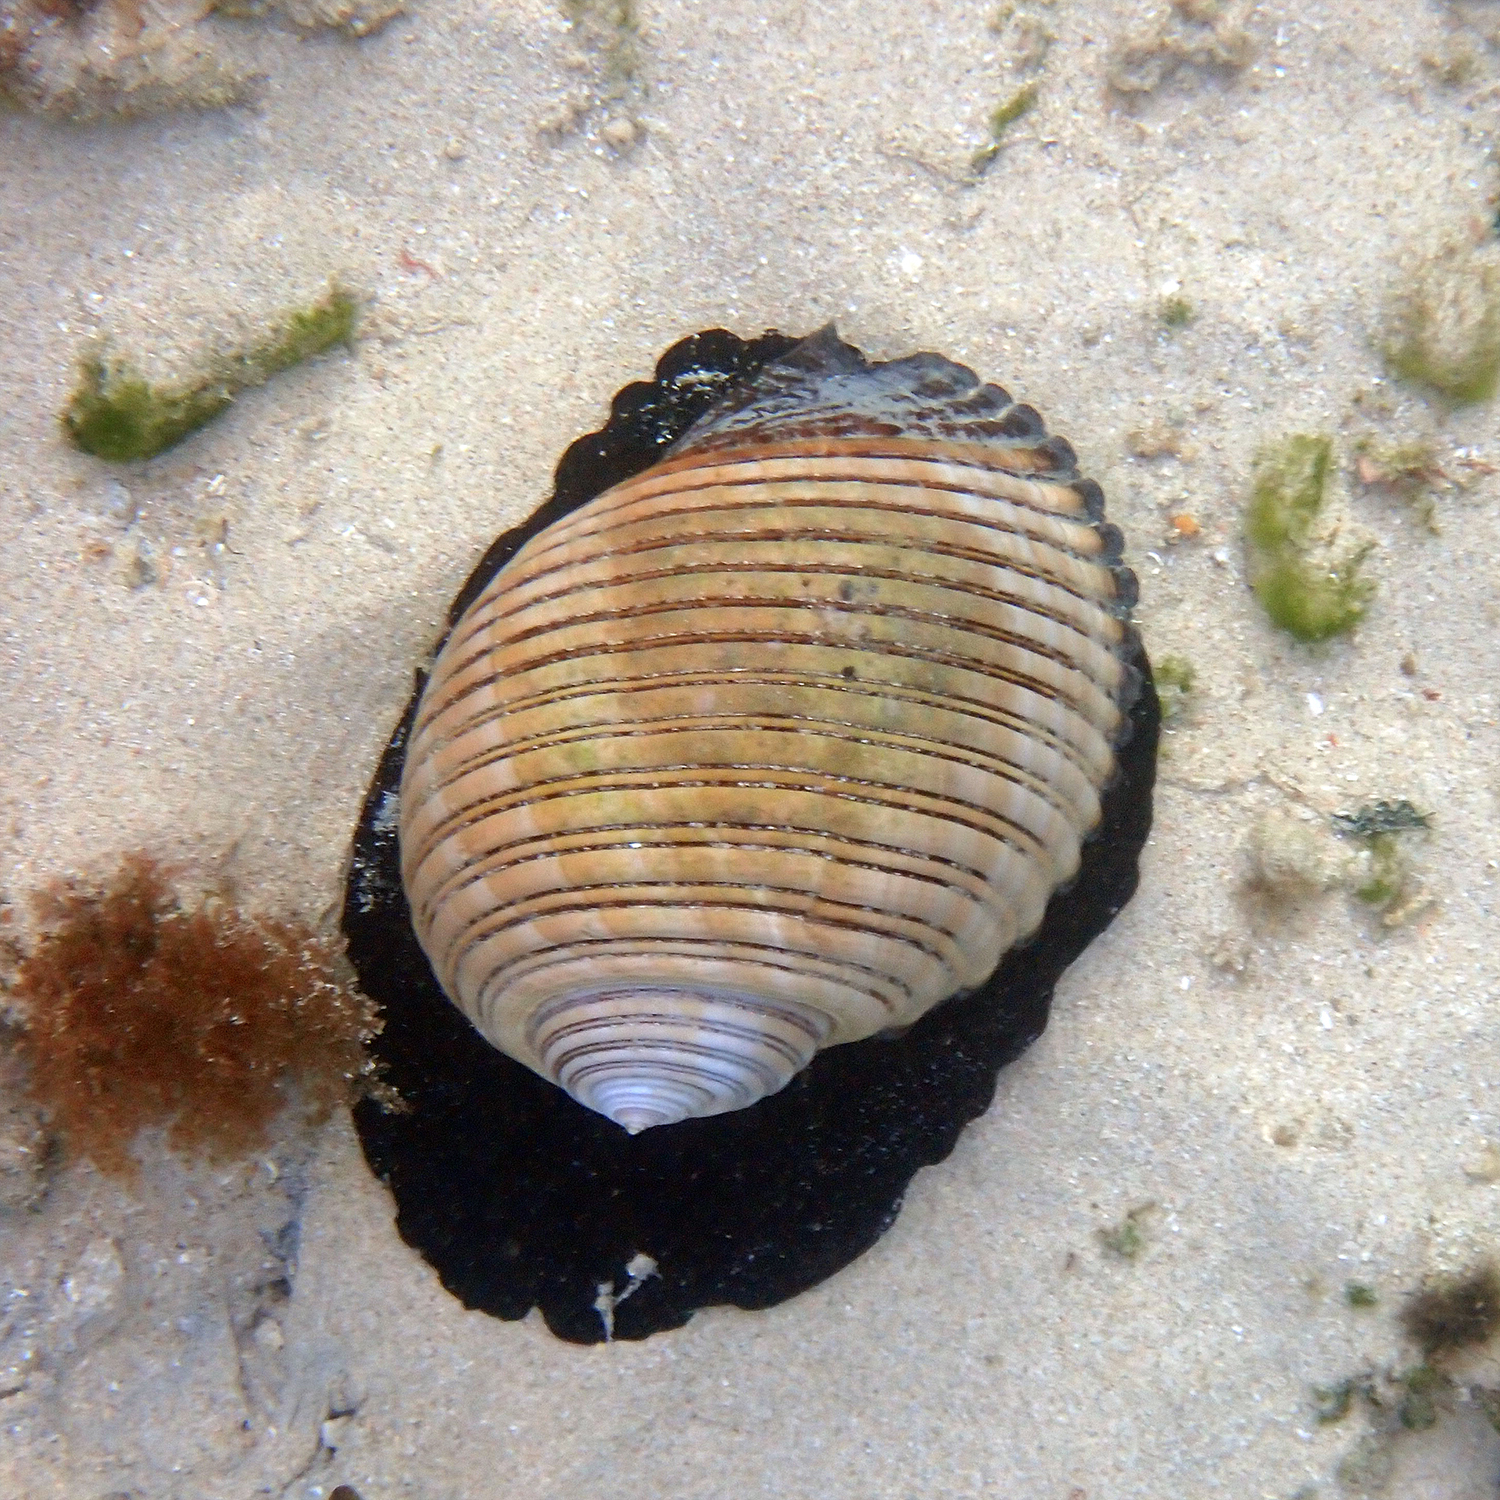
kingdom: Animalia
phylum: Mollusca
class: Gastropoda
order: Littorinimorpha
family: Tonnidae
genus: Tonna
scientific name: Tonna melanostoma
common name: Black mouthed tun
